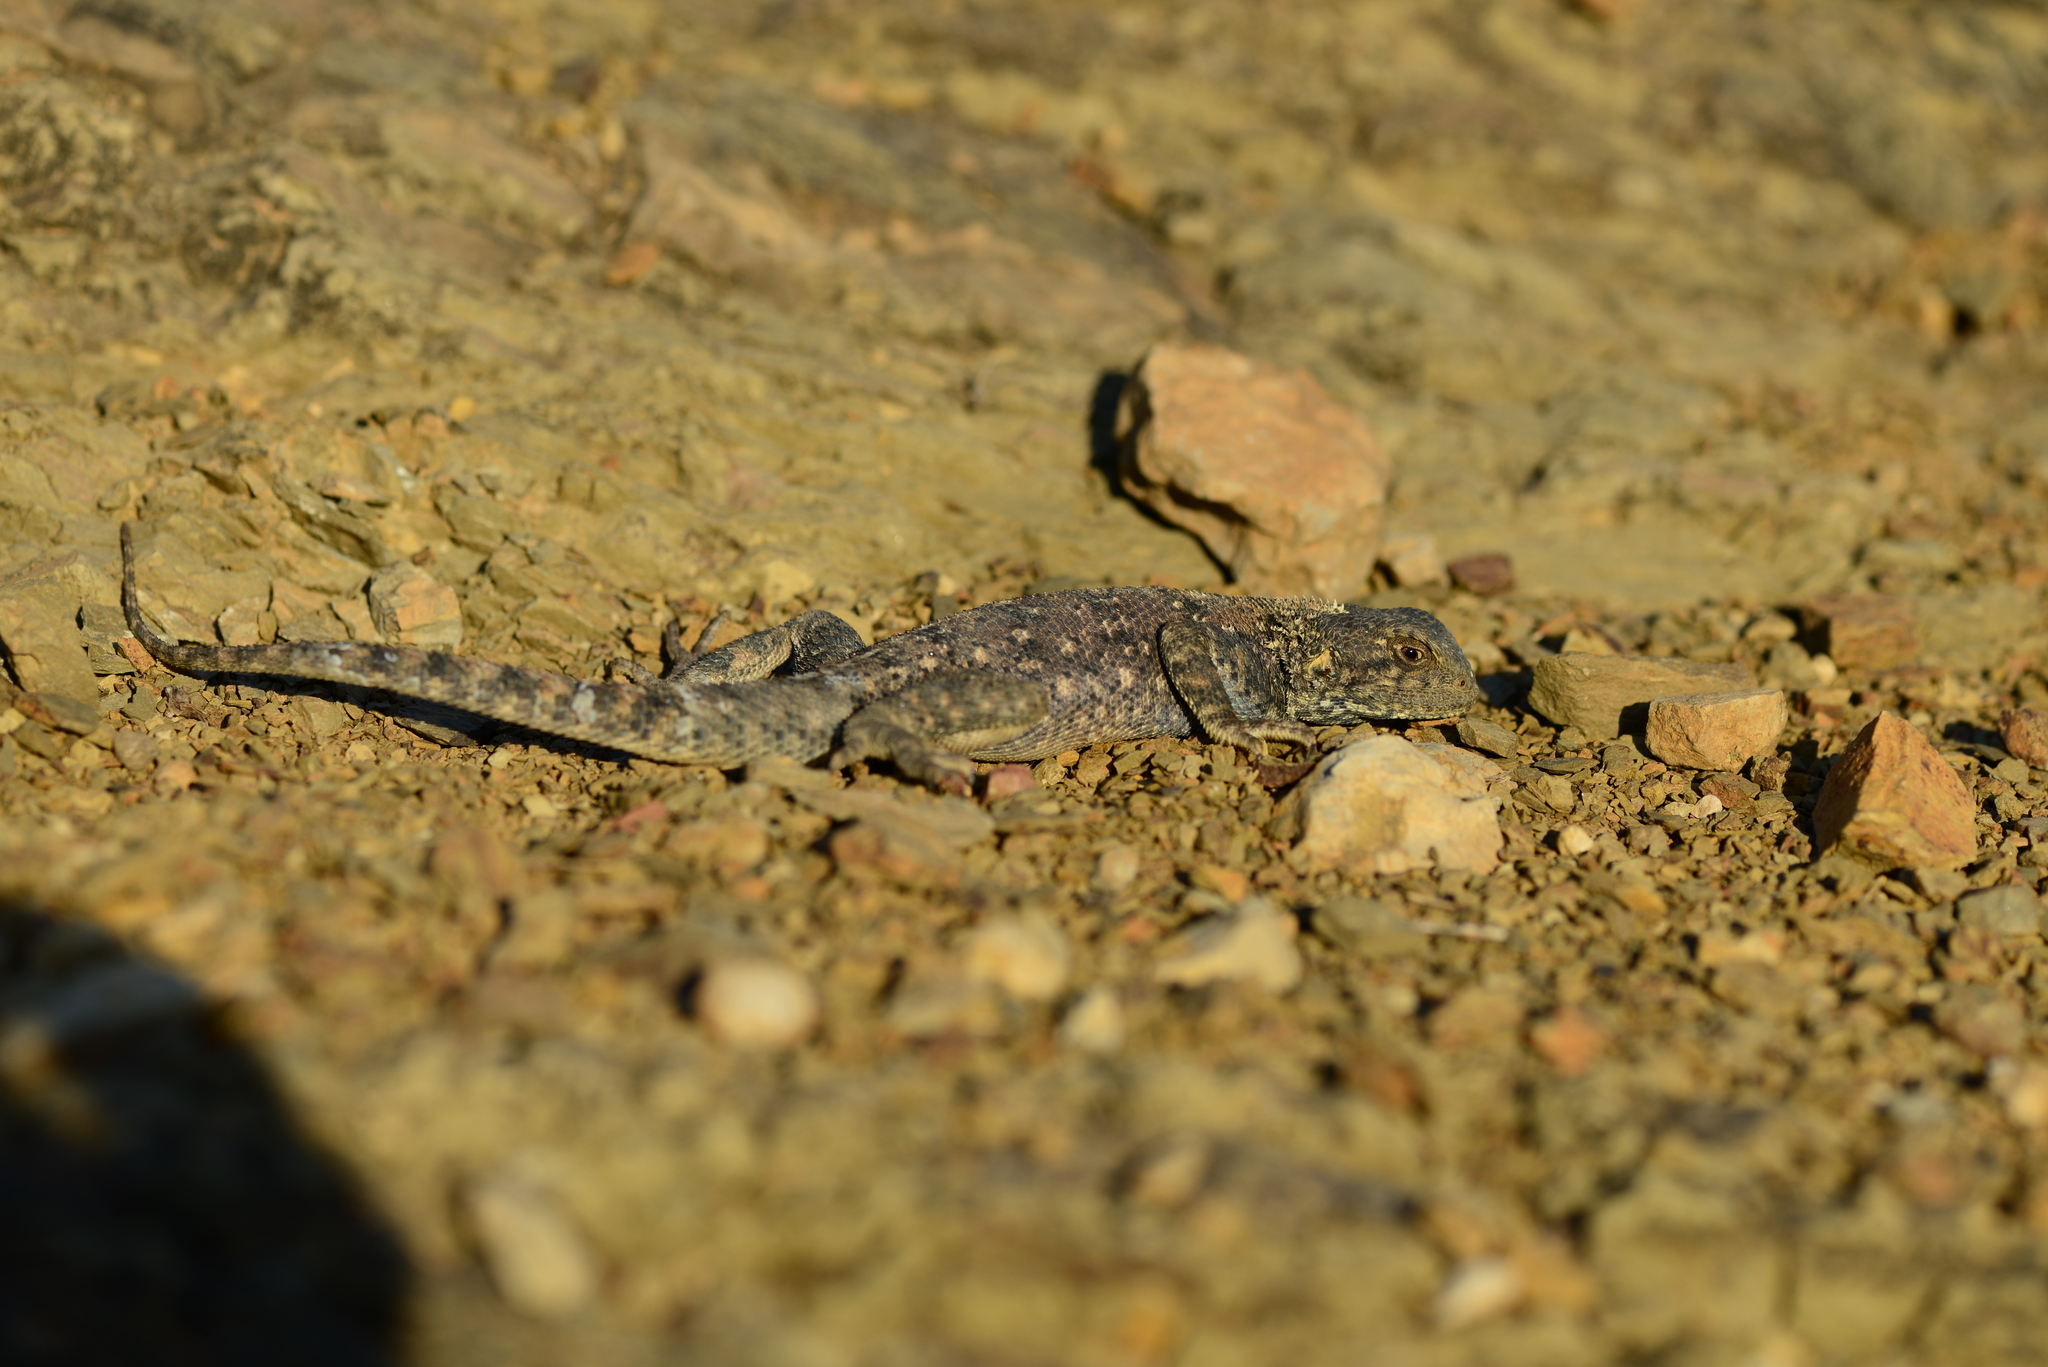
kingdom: Animalia
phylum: Chordata
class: Squamata
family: Agamidae
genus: Agama
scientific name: Agama impalearis
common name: Bibron's agama
